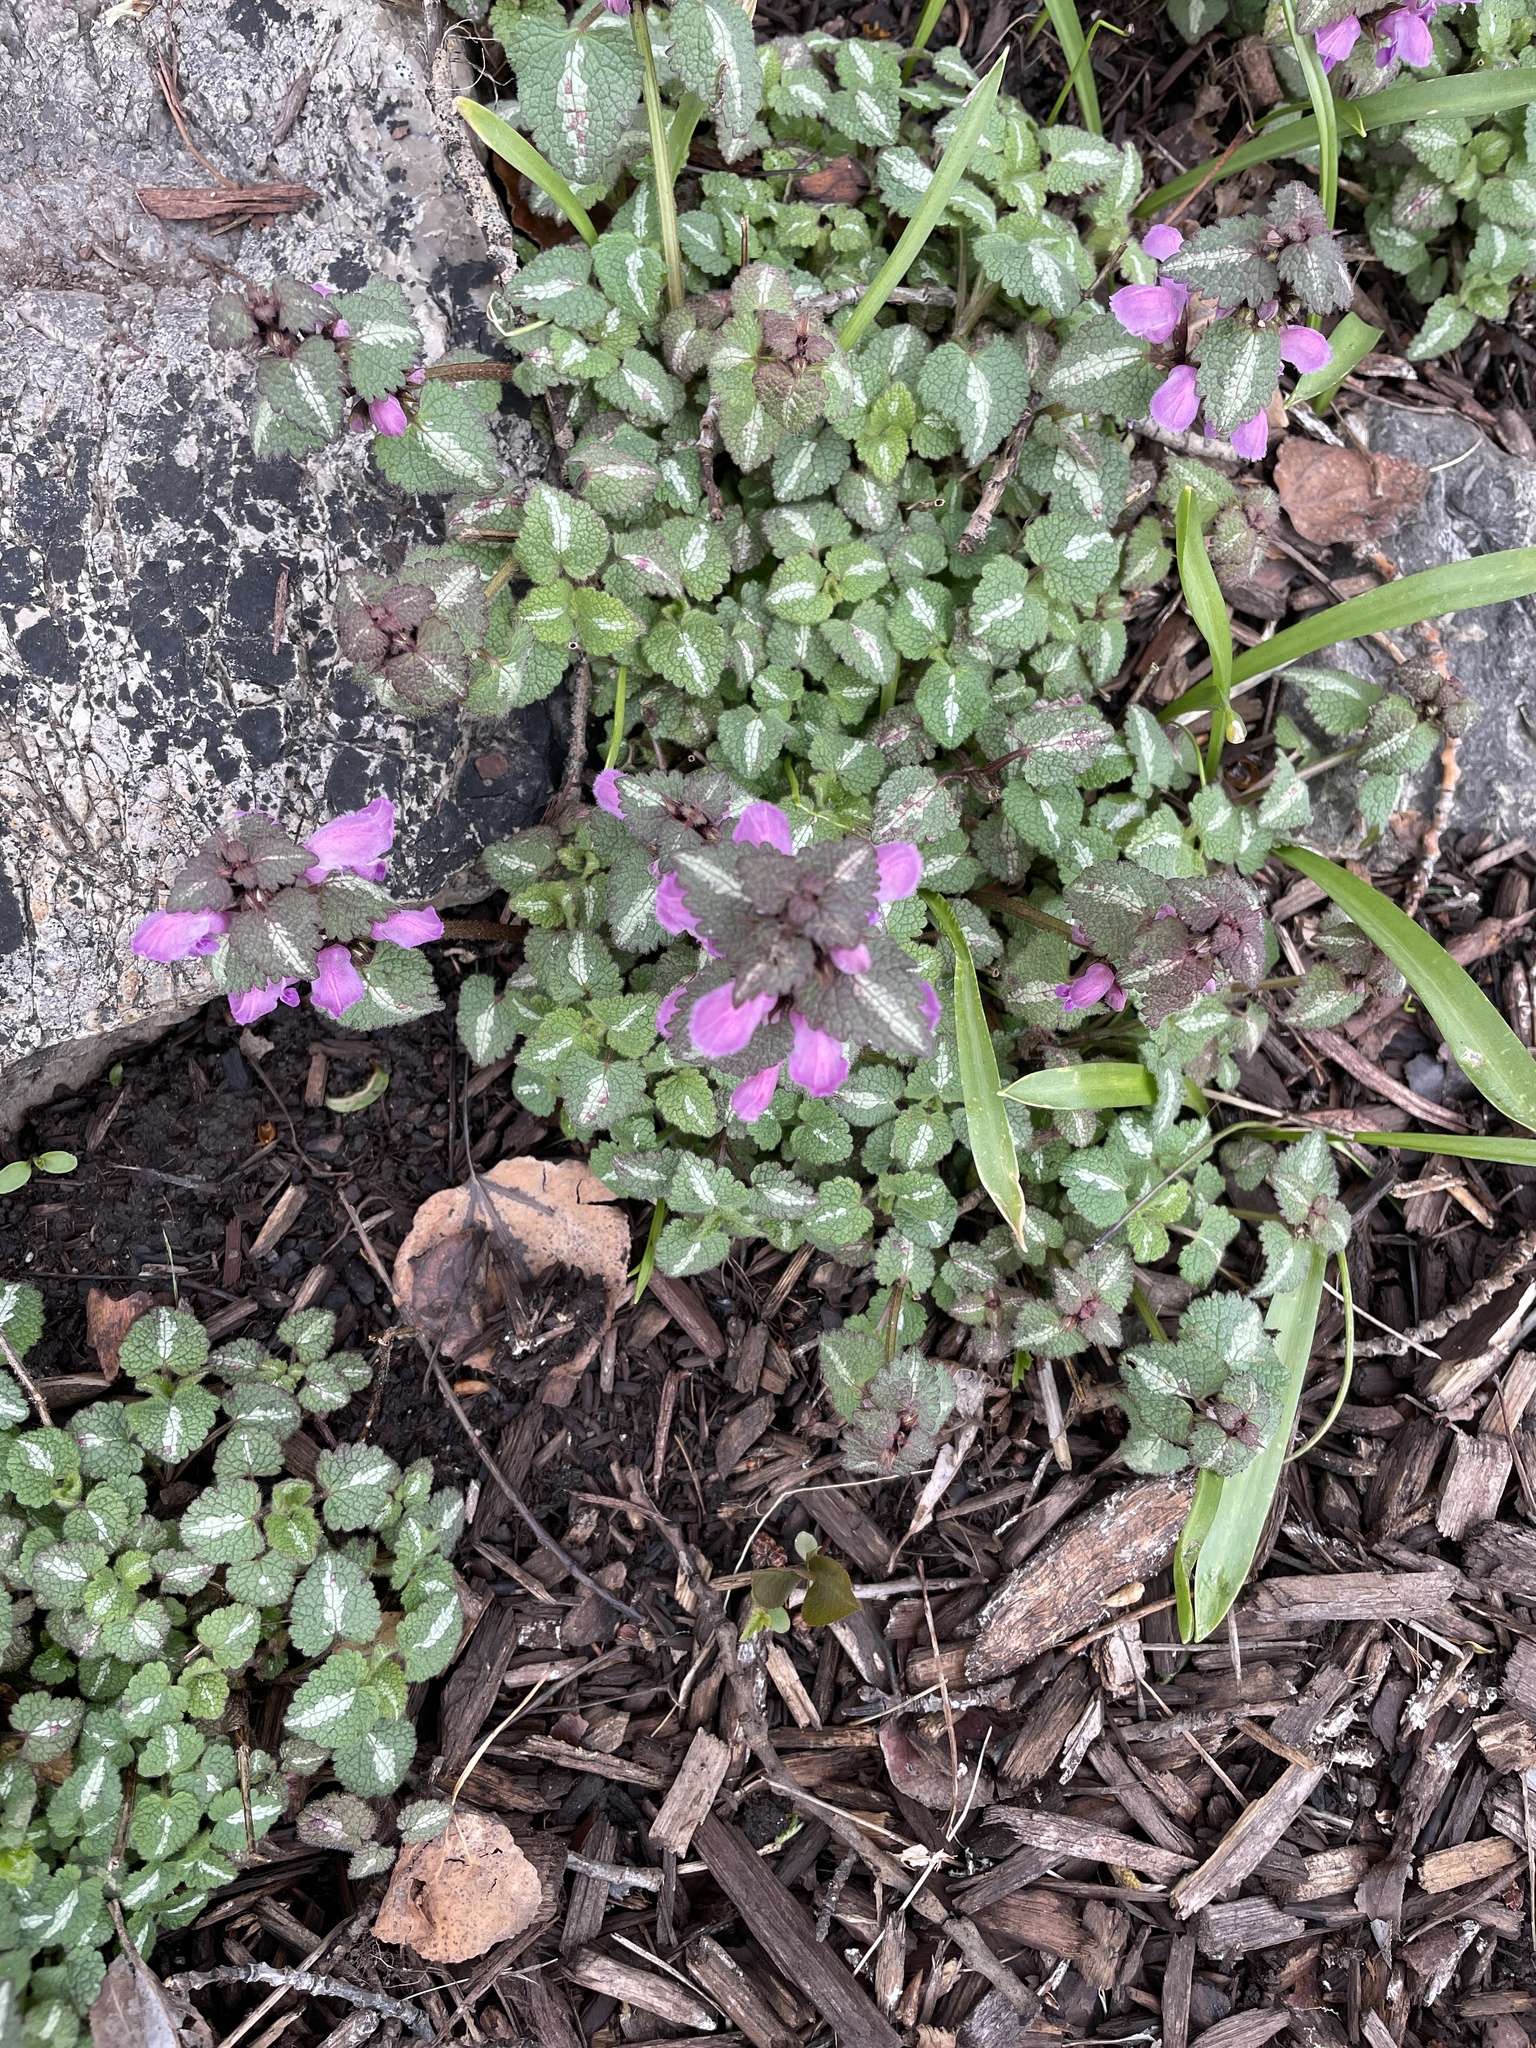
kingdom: Plantae
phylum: Tracheophyta
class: Magnoliopsida
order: Lamiales
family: Lamiaceae
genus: Lamium
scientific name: Lamium maculatum
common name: Spotted dead-nettle
